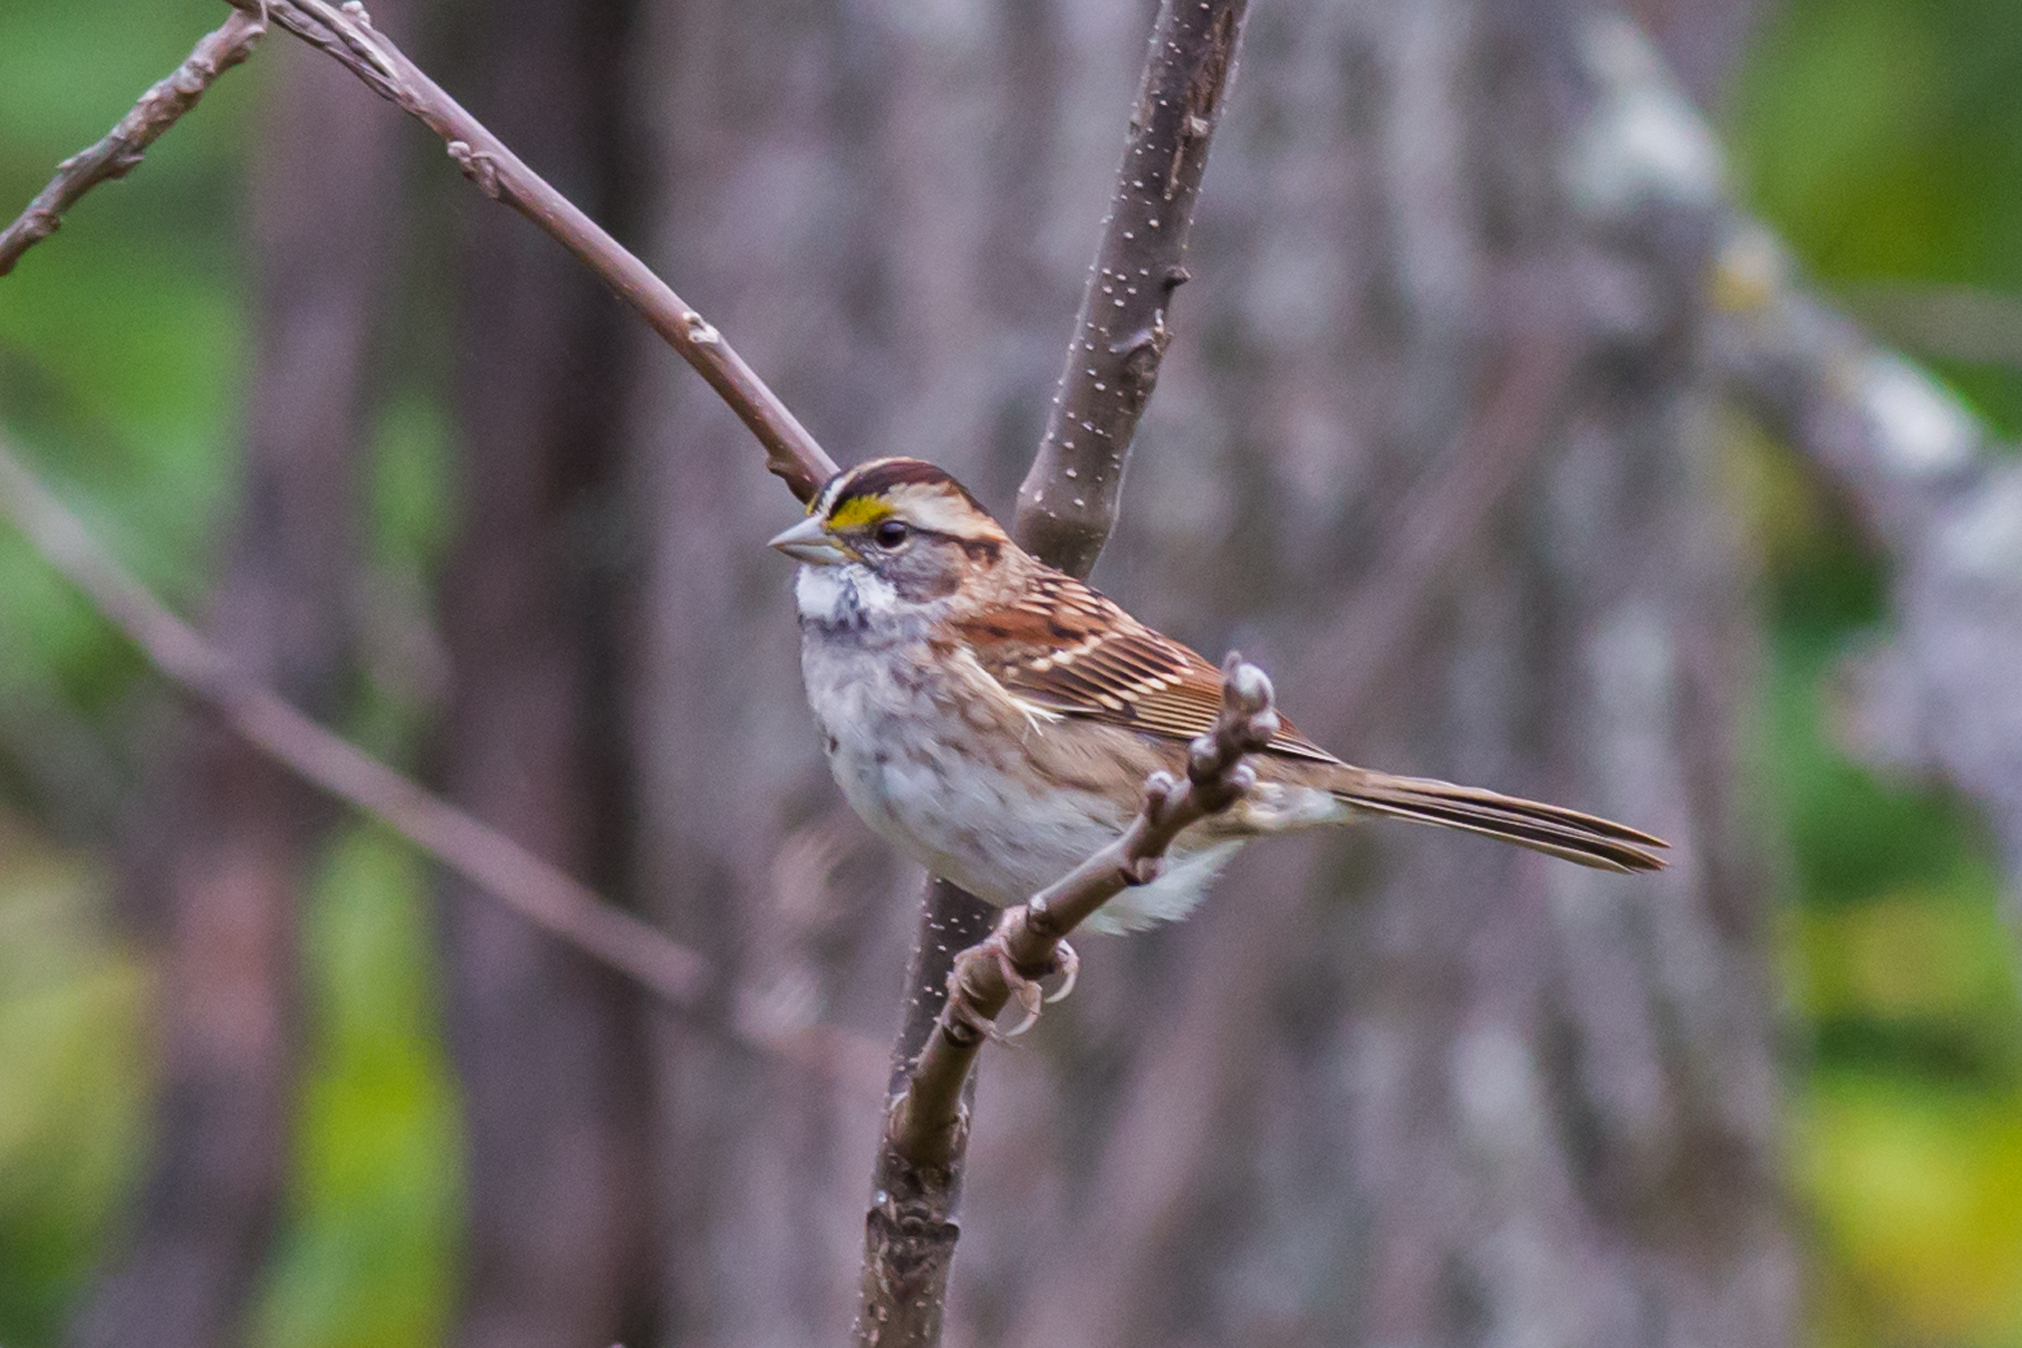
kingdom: Animalia
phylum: Chordata
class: Aves
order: Passeriformes
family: Passerellidae
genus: Zonotrichia
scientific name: Zonotrichia albicollis
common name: White-throated sparrow
